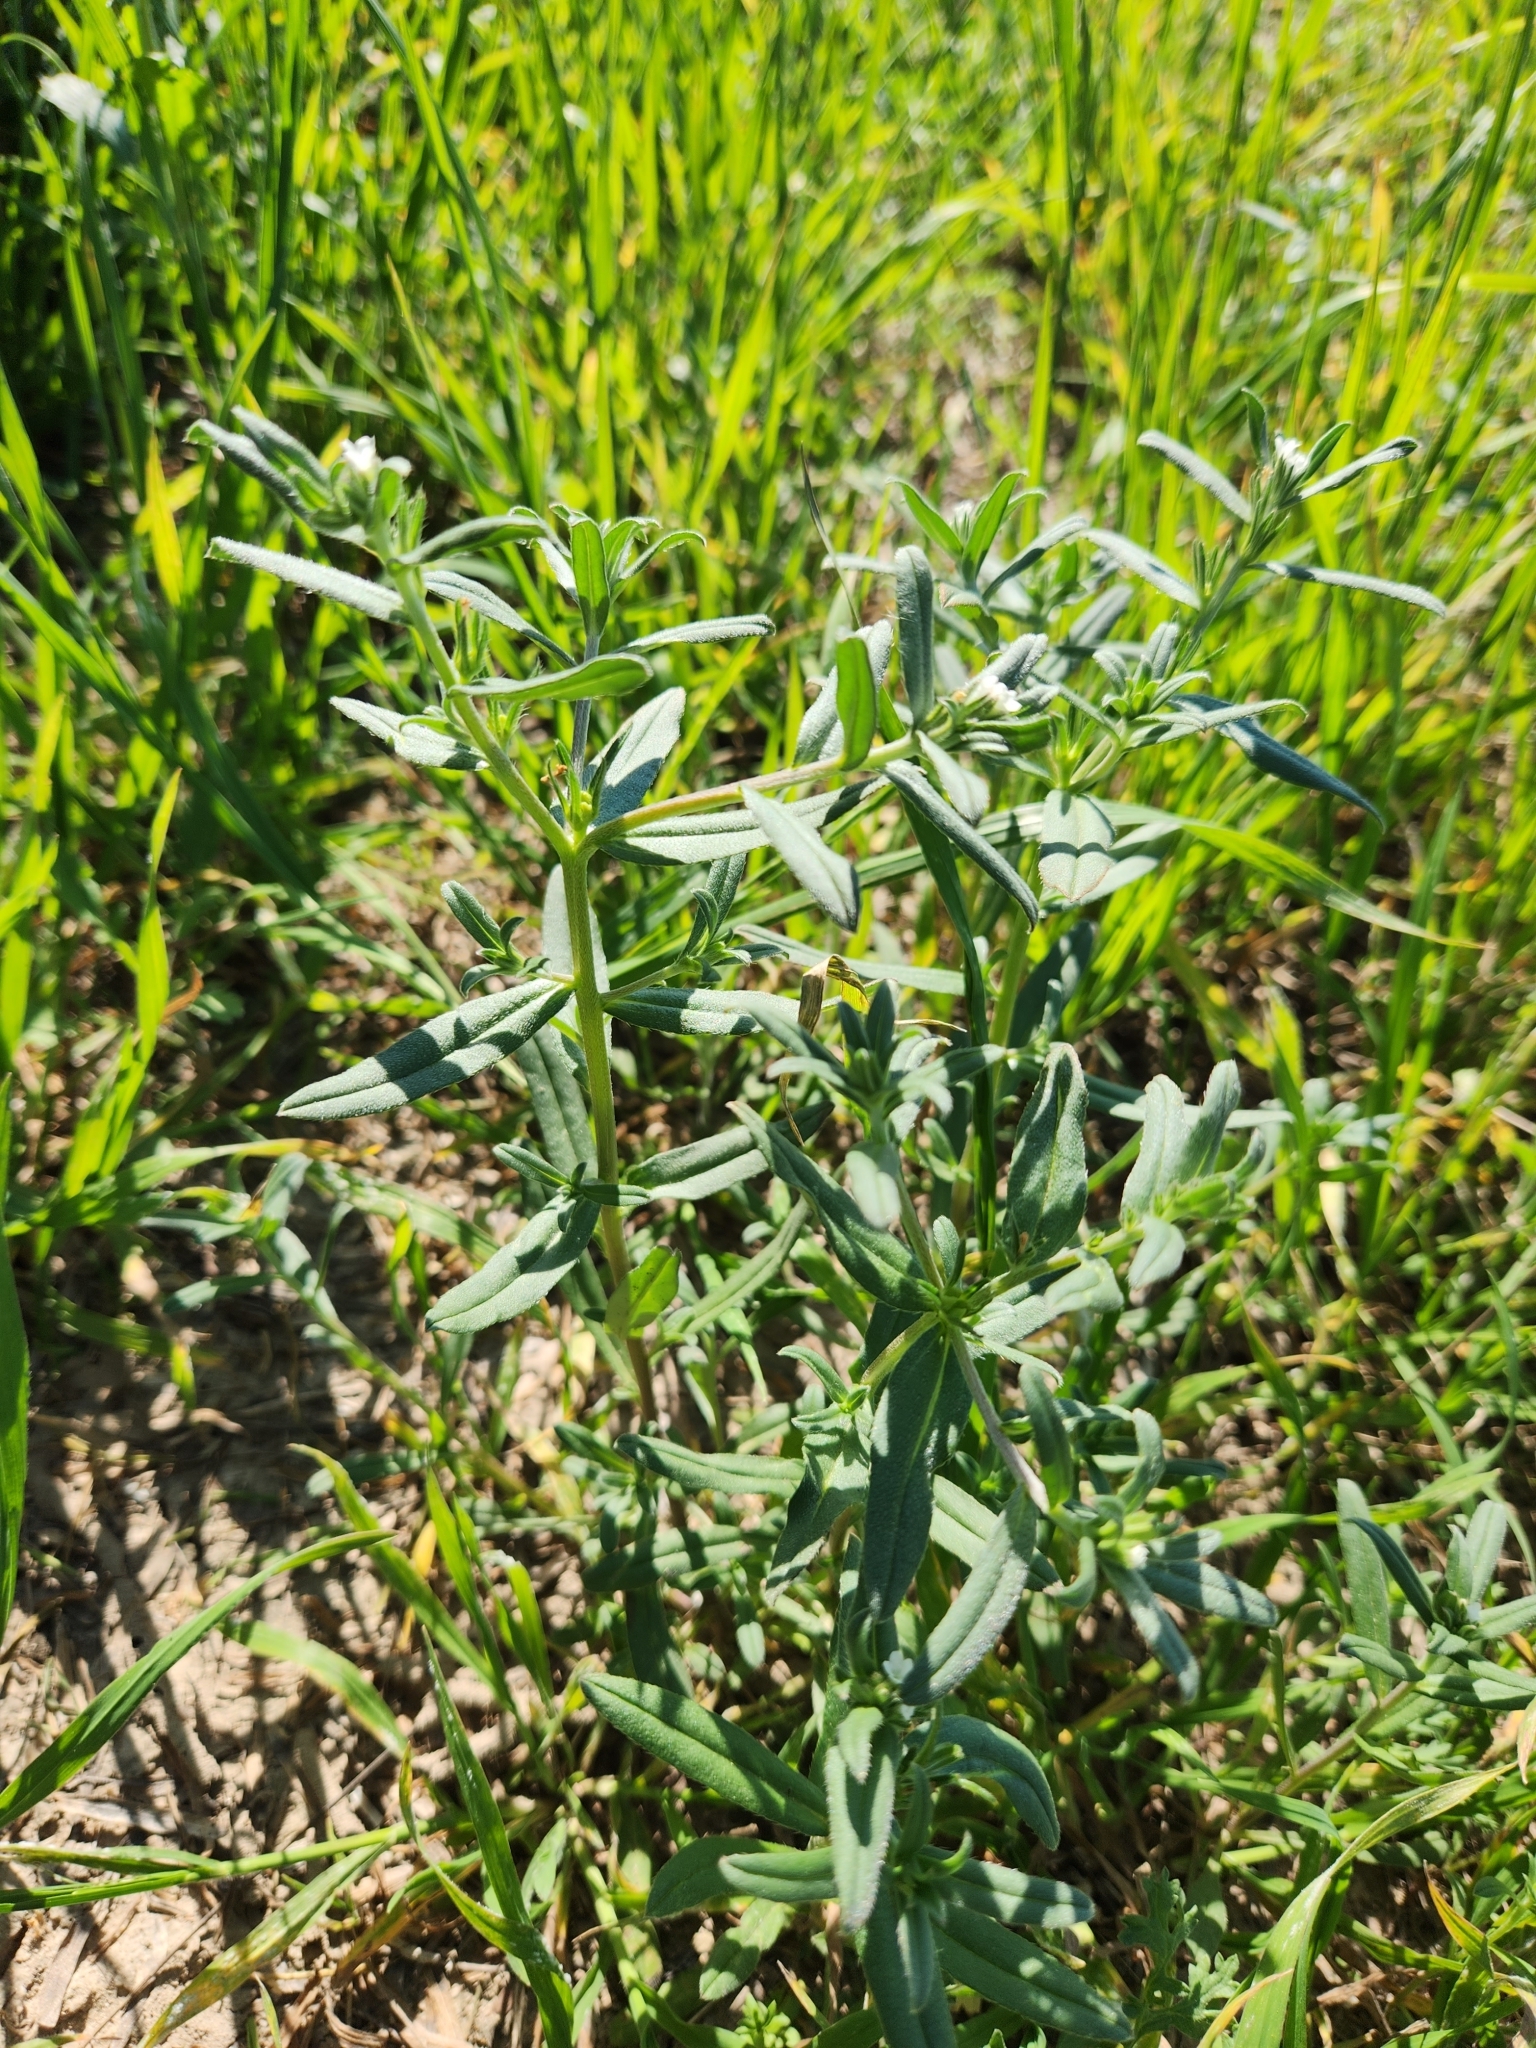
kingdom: Plantae
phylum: Tracheophyta
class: Magnoliopsida
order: Boraginales
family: Boraginaceae
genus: Buglossoides
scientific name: Buglossoides arvensis
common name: Corn gromwell
